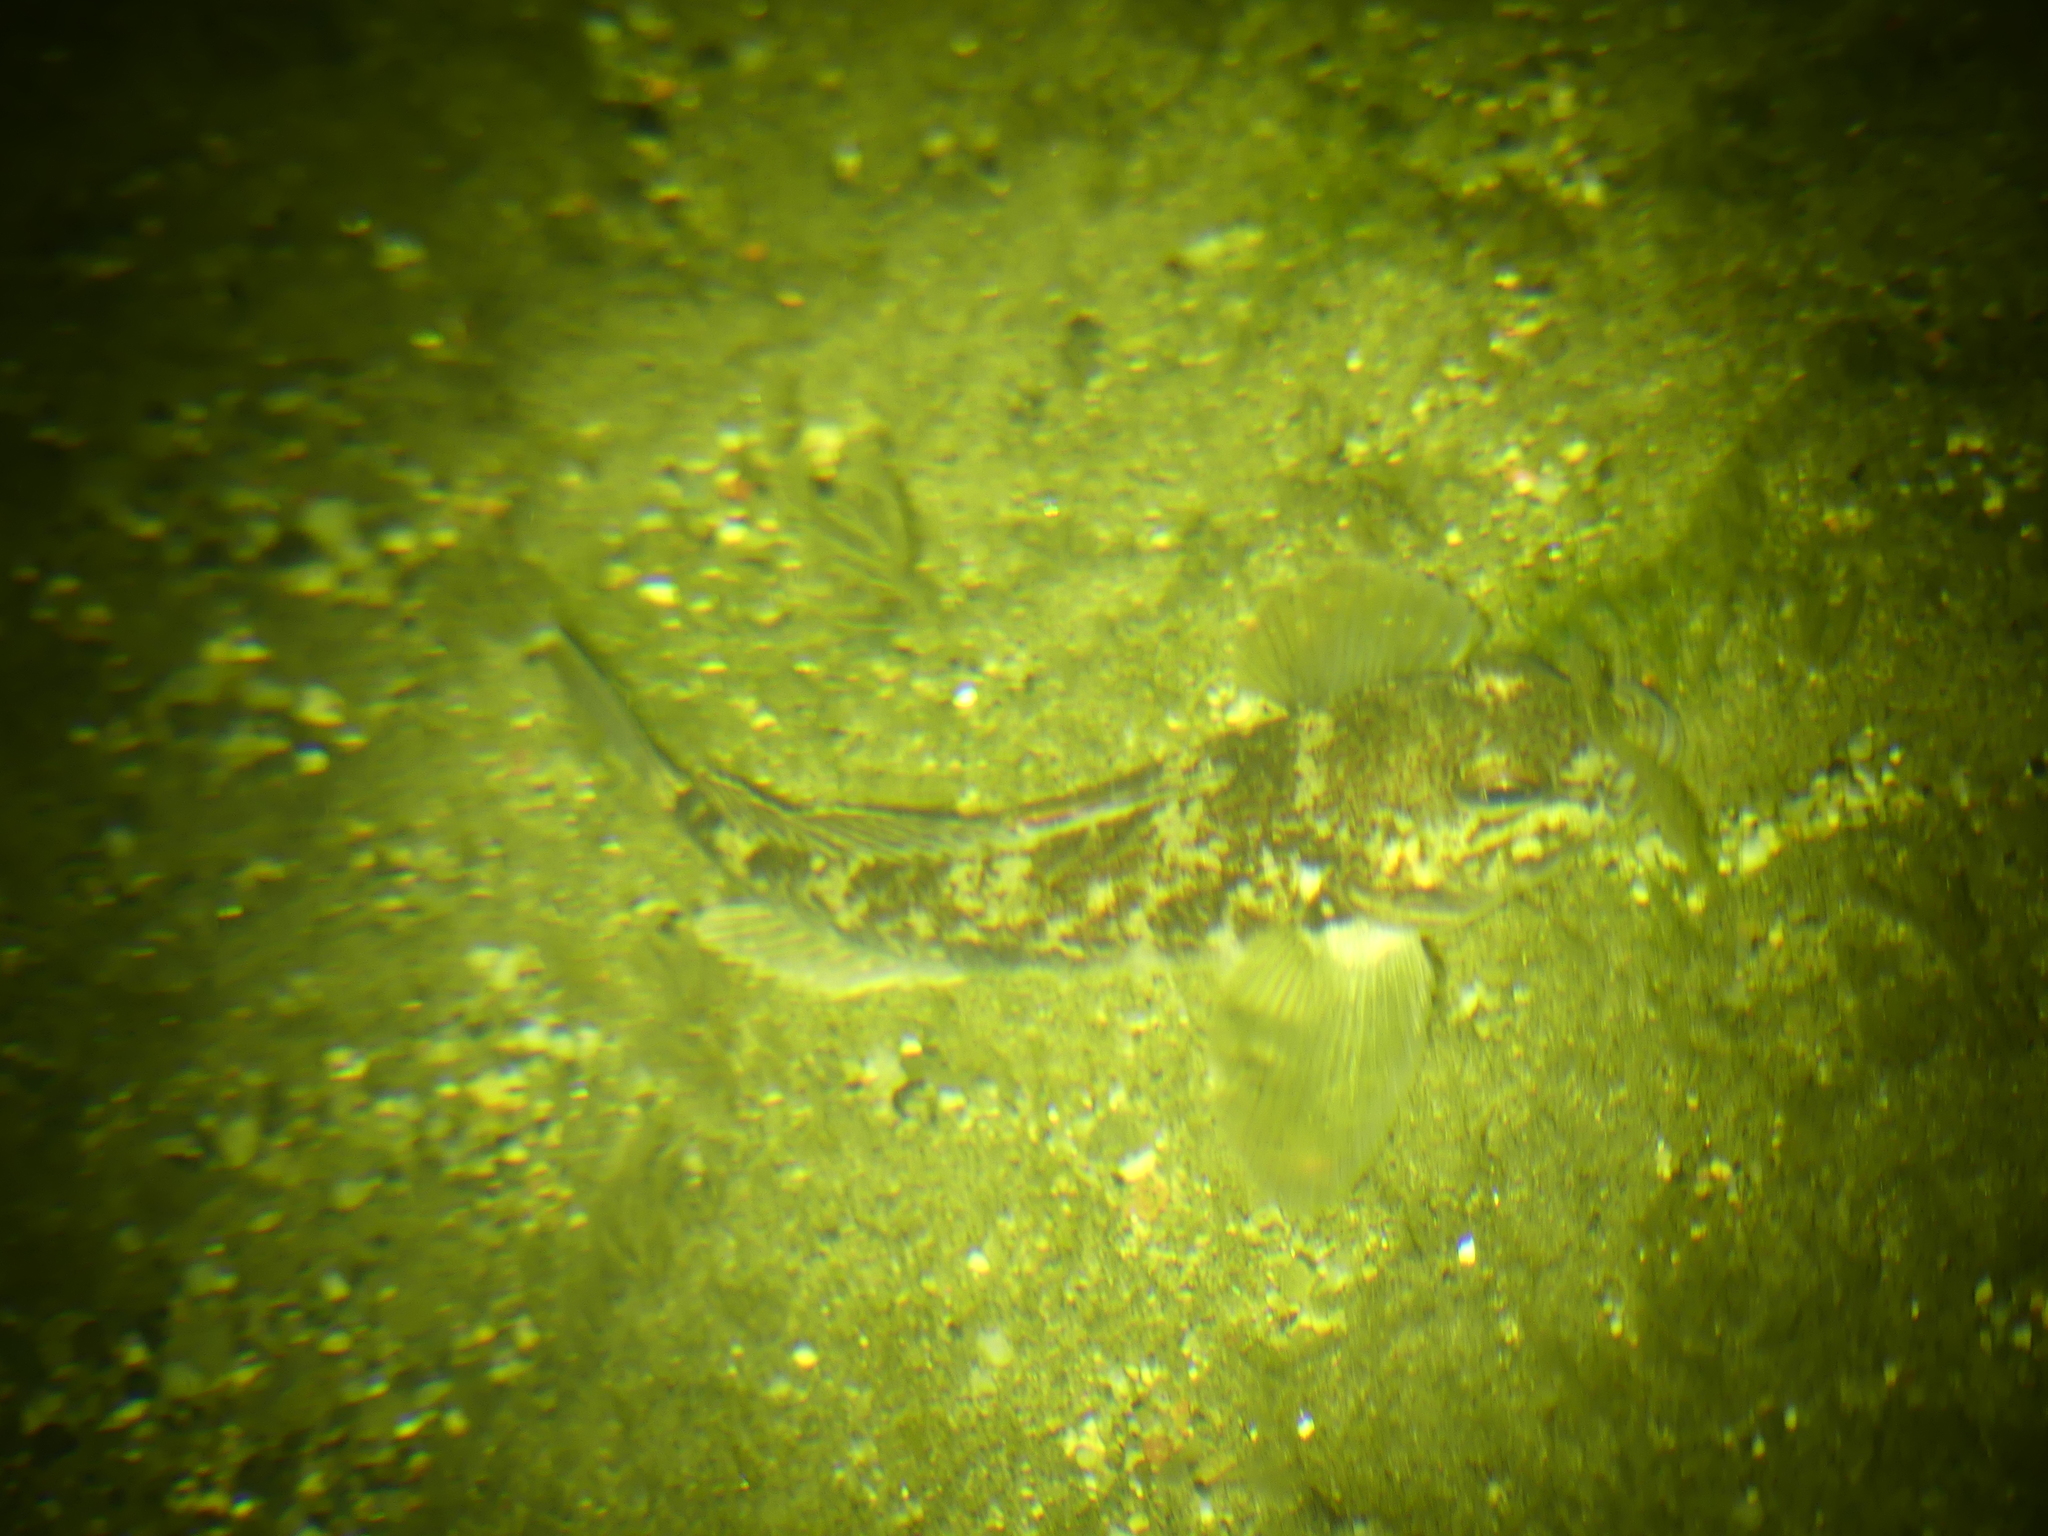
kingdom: Animalia
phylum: Chordata
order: Perciformes
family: Gobiidae
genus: Neogobius
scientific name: Neogobius melanostomus
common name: Round goby
